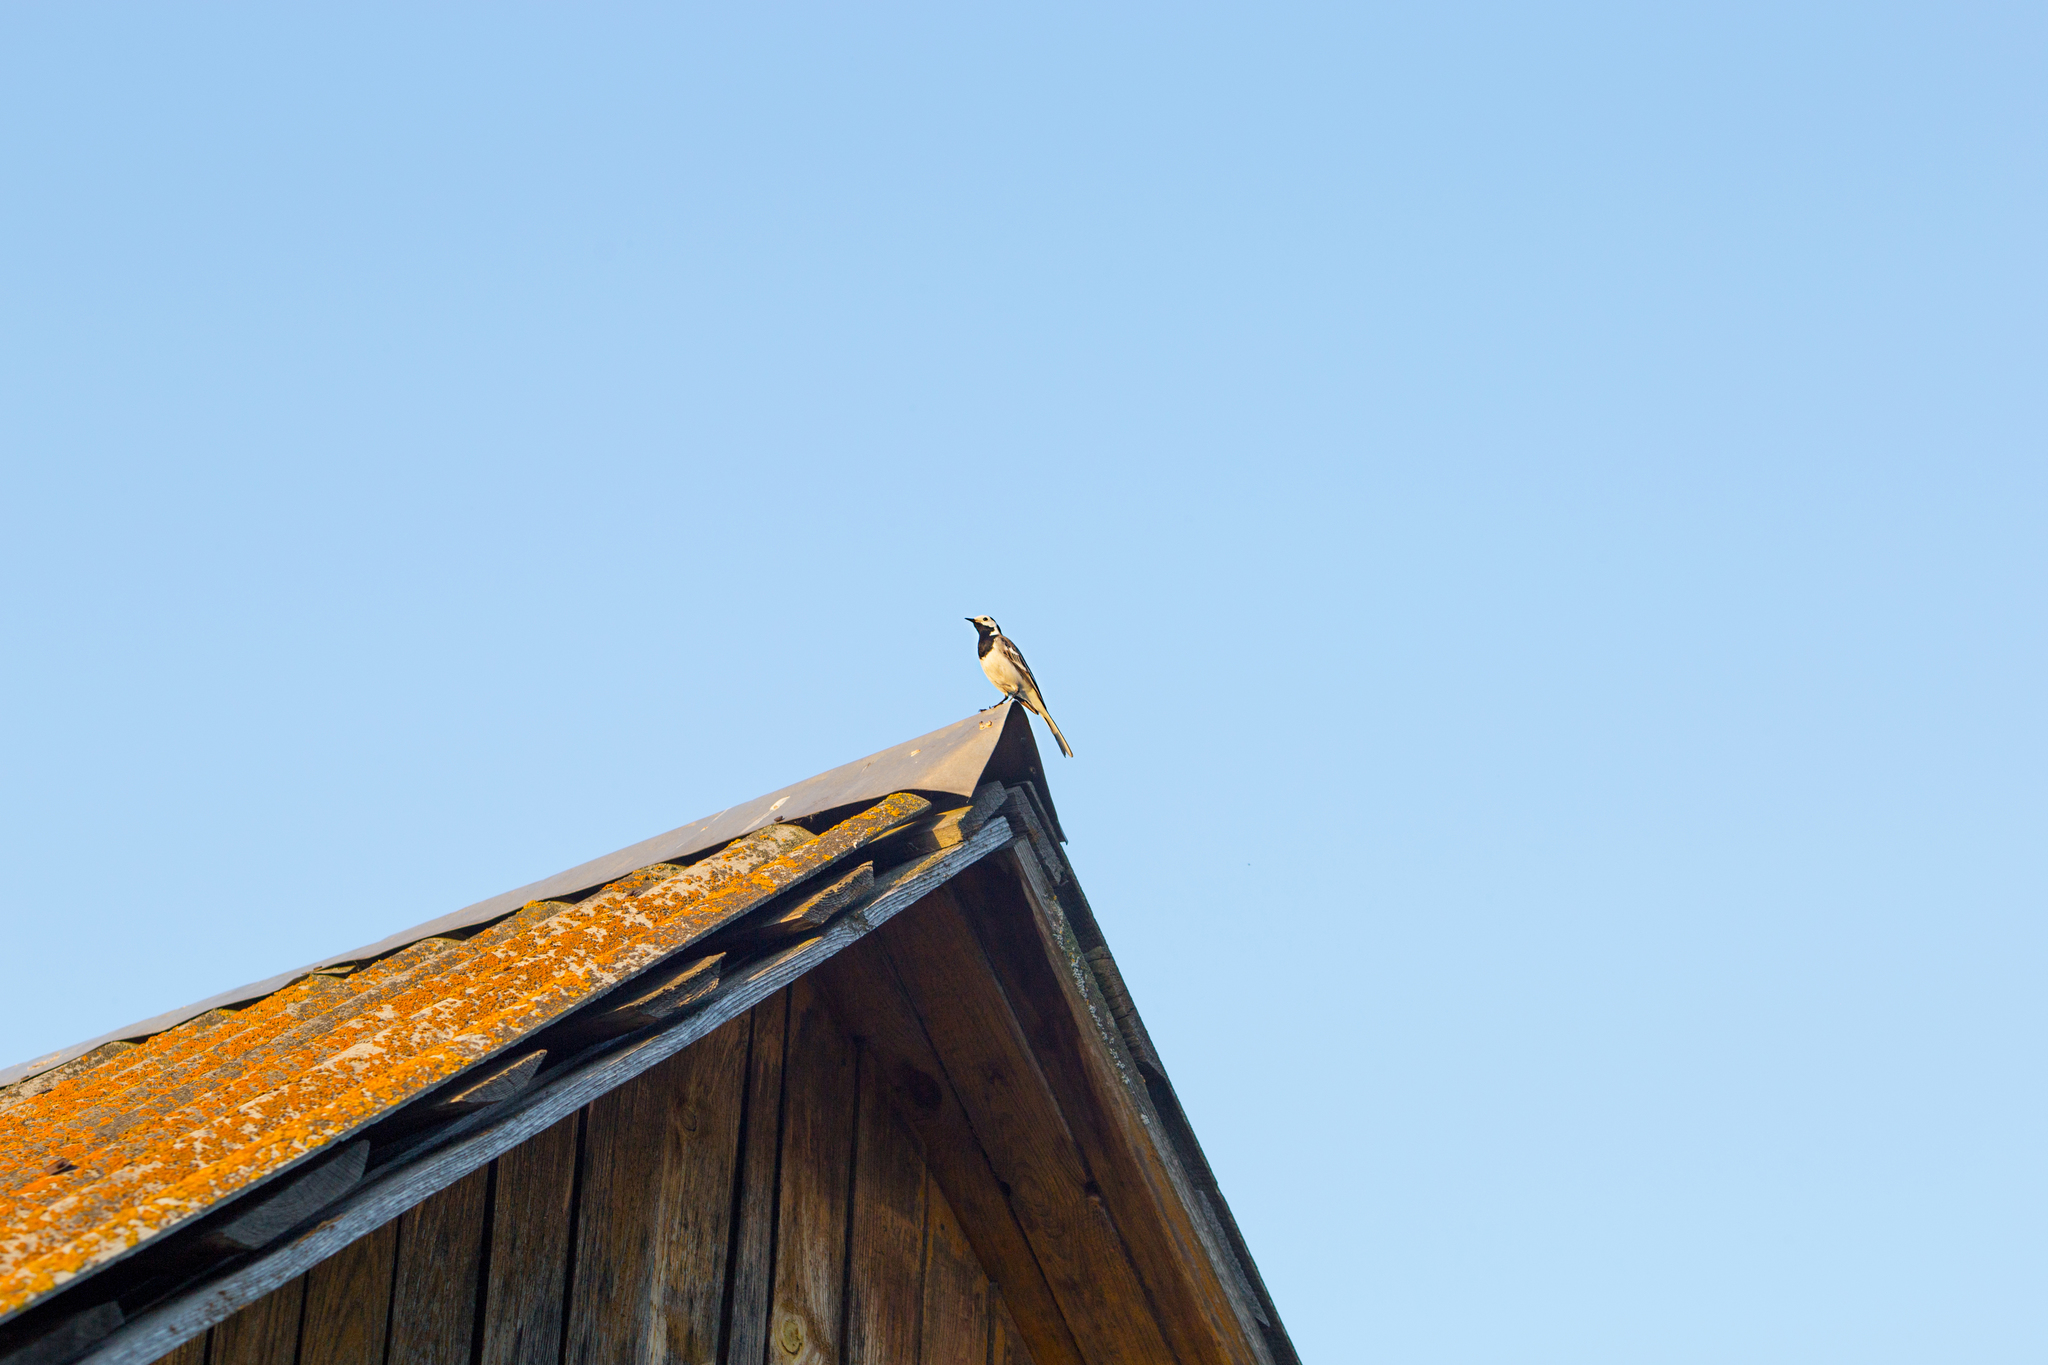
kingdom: Animalia
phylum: Chordata
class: Aves
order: Passeriformes
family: Motacillidae
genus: Motacilla
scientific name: Motacilla alba
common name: White wagtail
